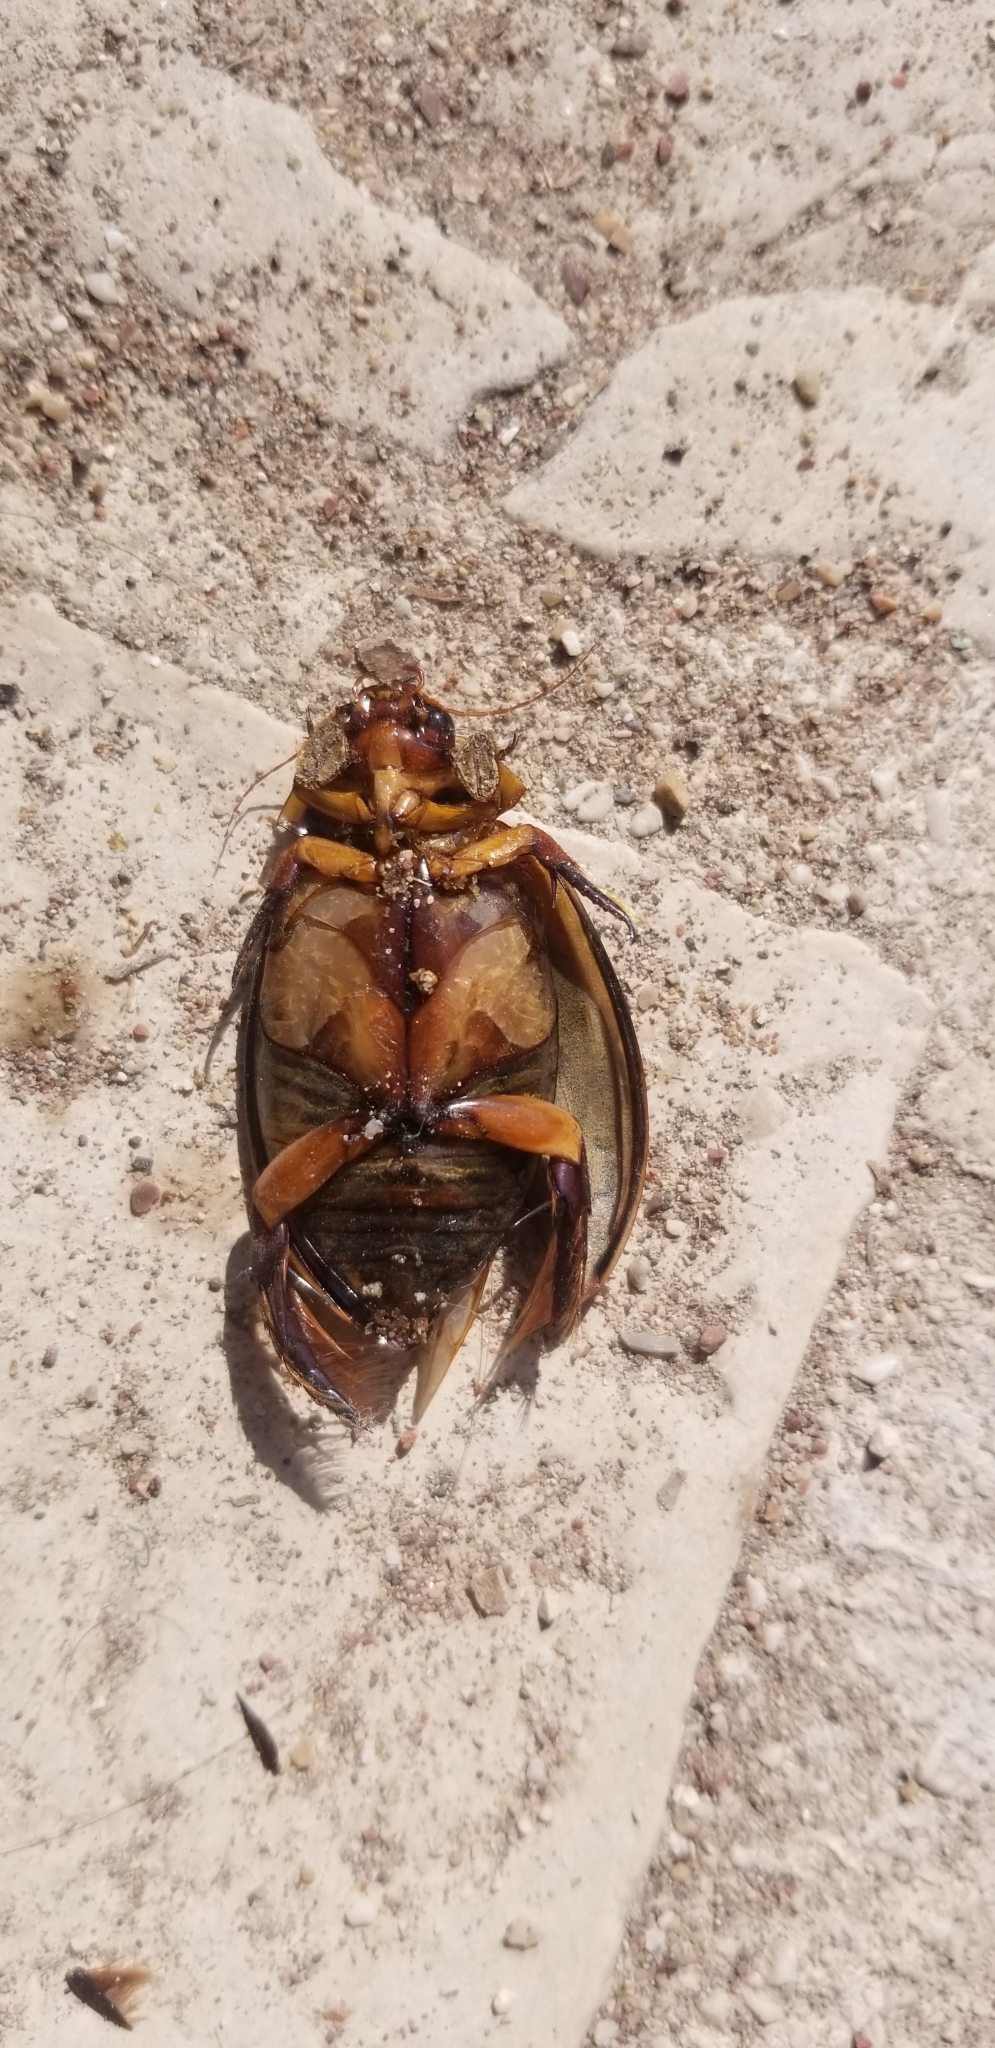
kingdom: Animalia
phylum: Arthropoda
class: Insecta
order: Coleoptera
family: Dytiscidae
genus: Cybister
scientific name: Cybister lateralimarginalis
